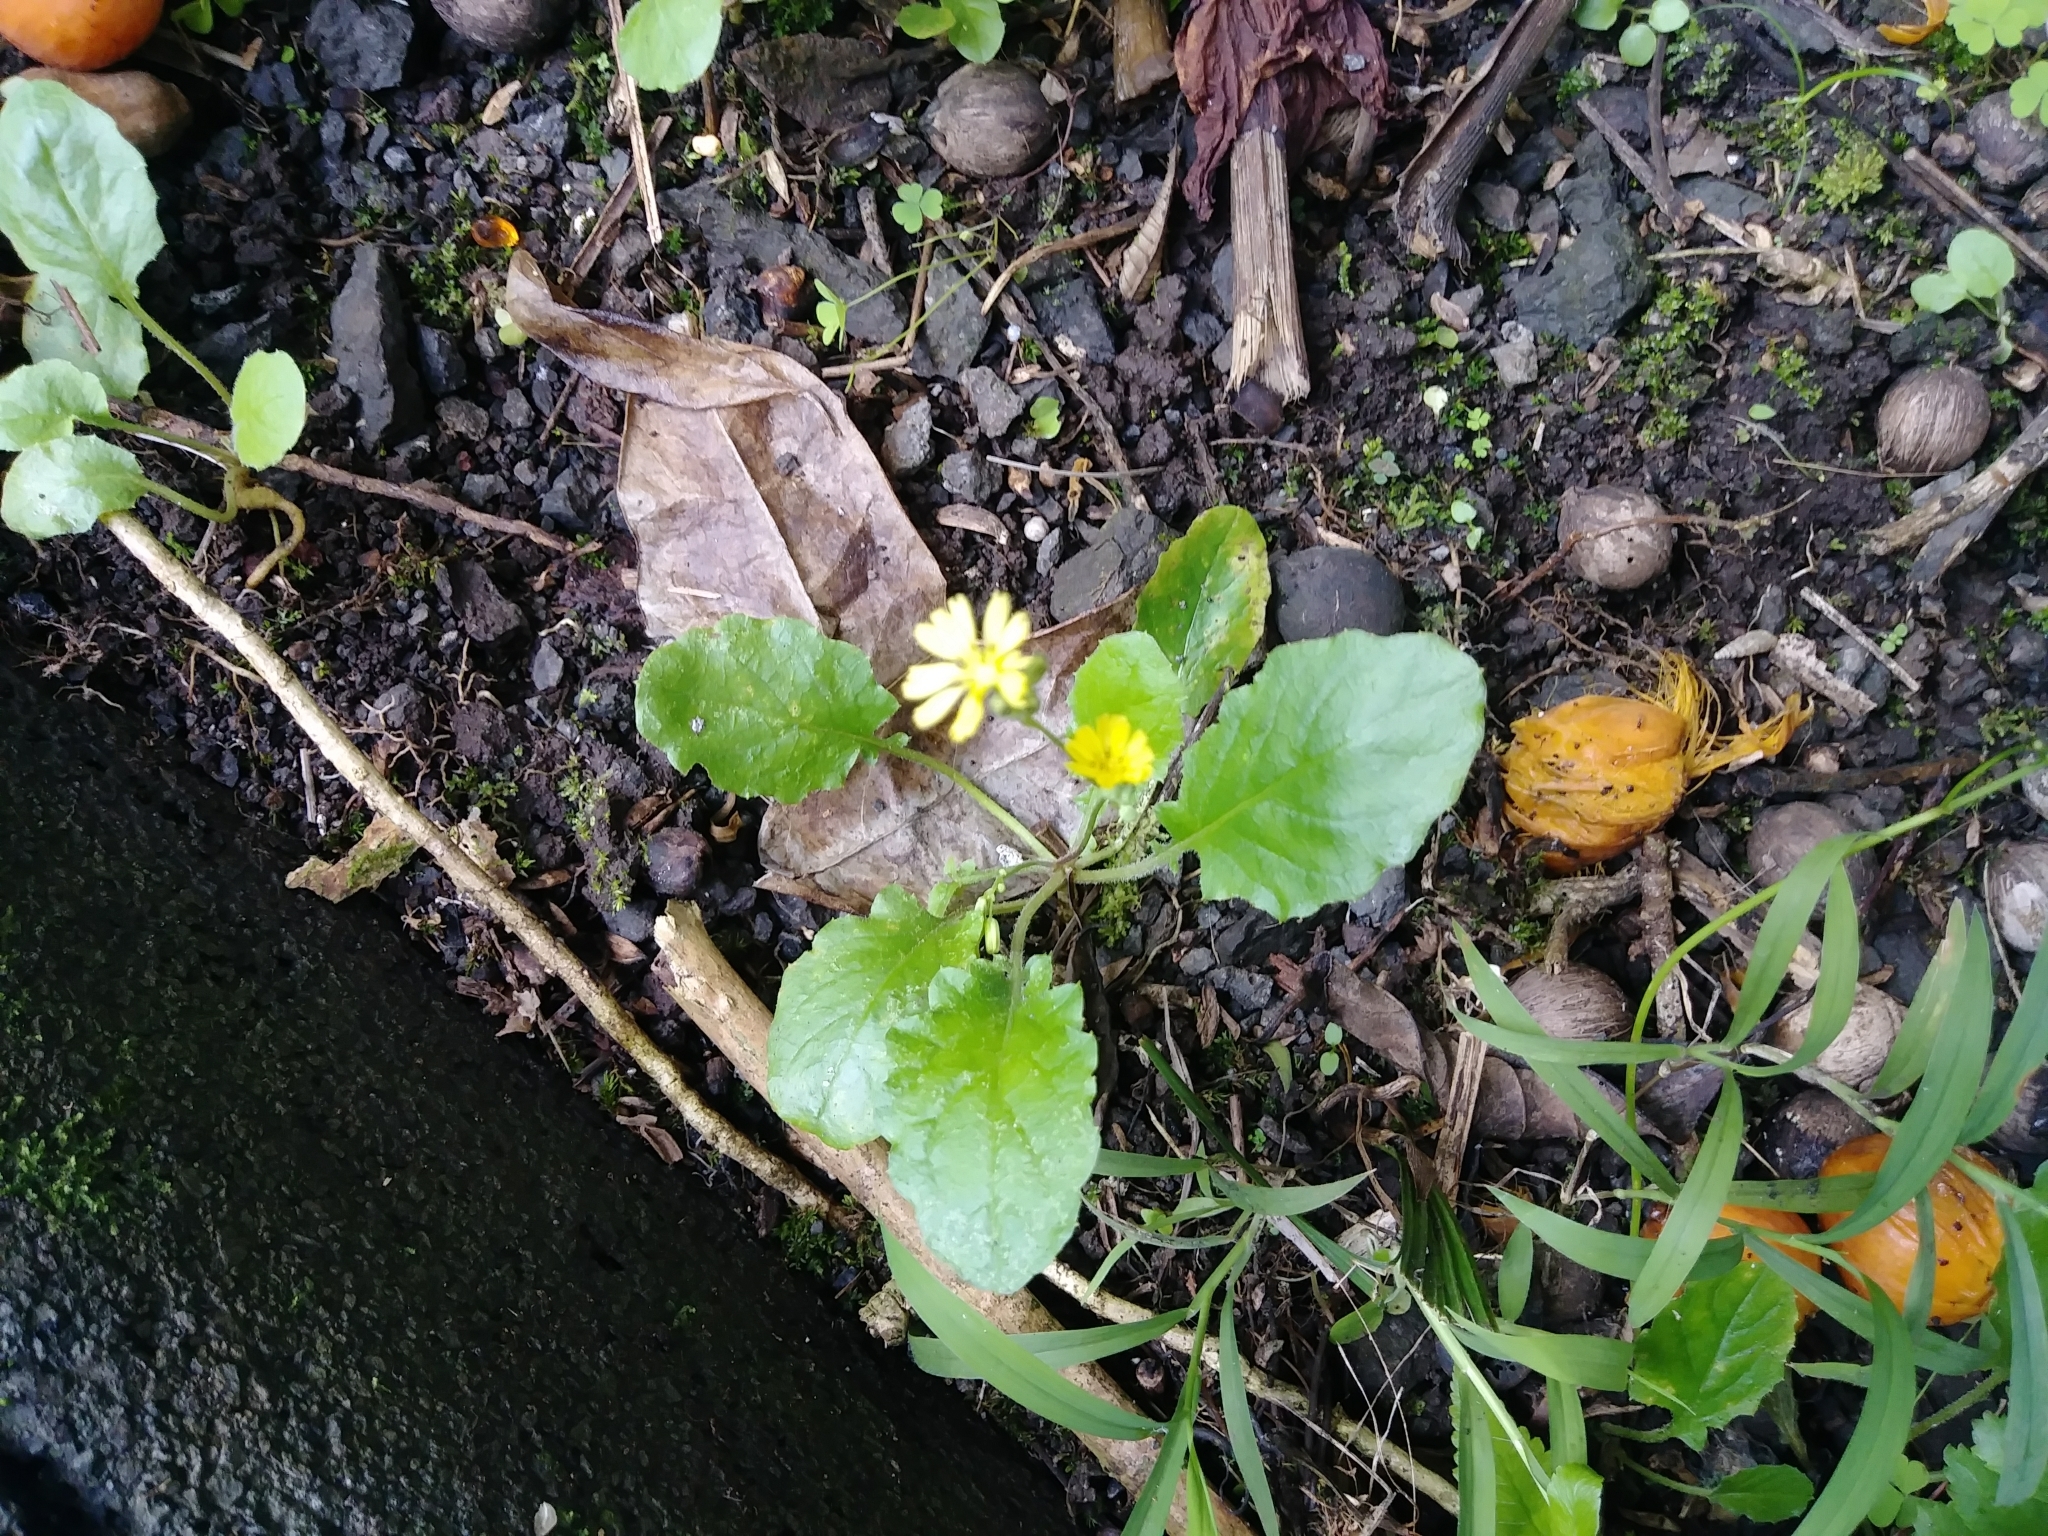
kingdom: Plantae
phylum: Tracheophyta
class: Magnoliopsida
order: Asterales
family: Asteraceae
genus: Youngia
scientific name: Youngia japonica
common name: Oriental false hawksbeard
